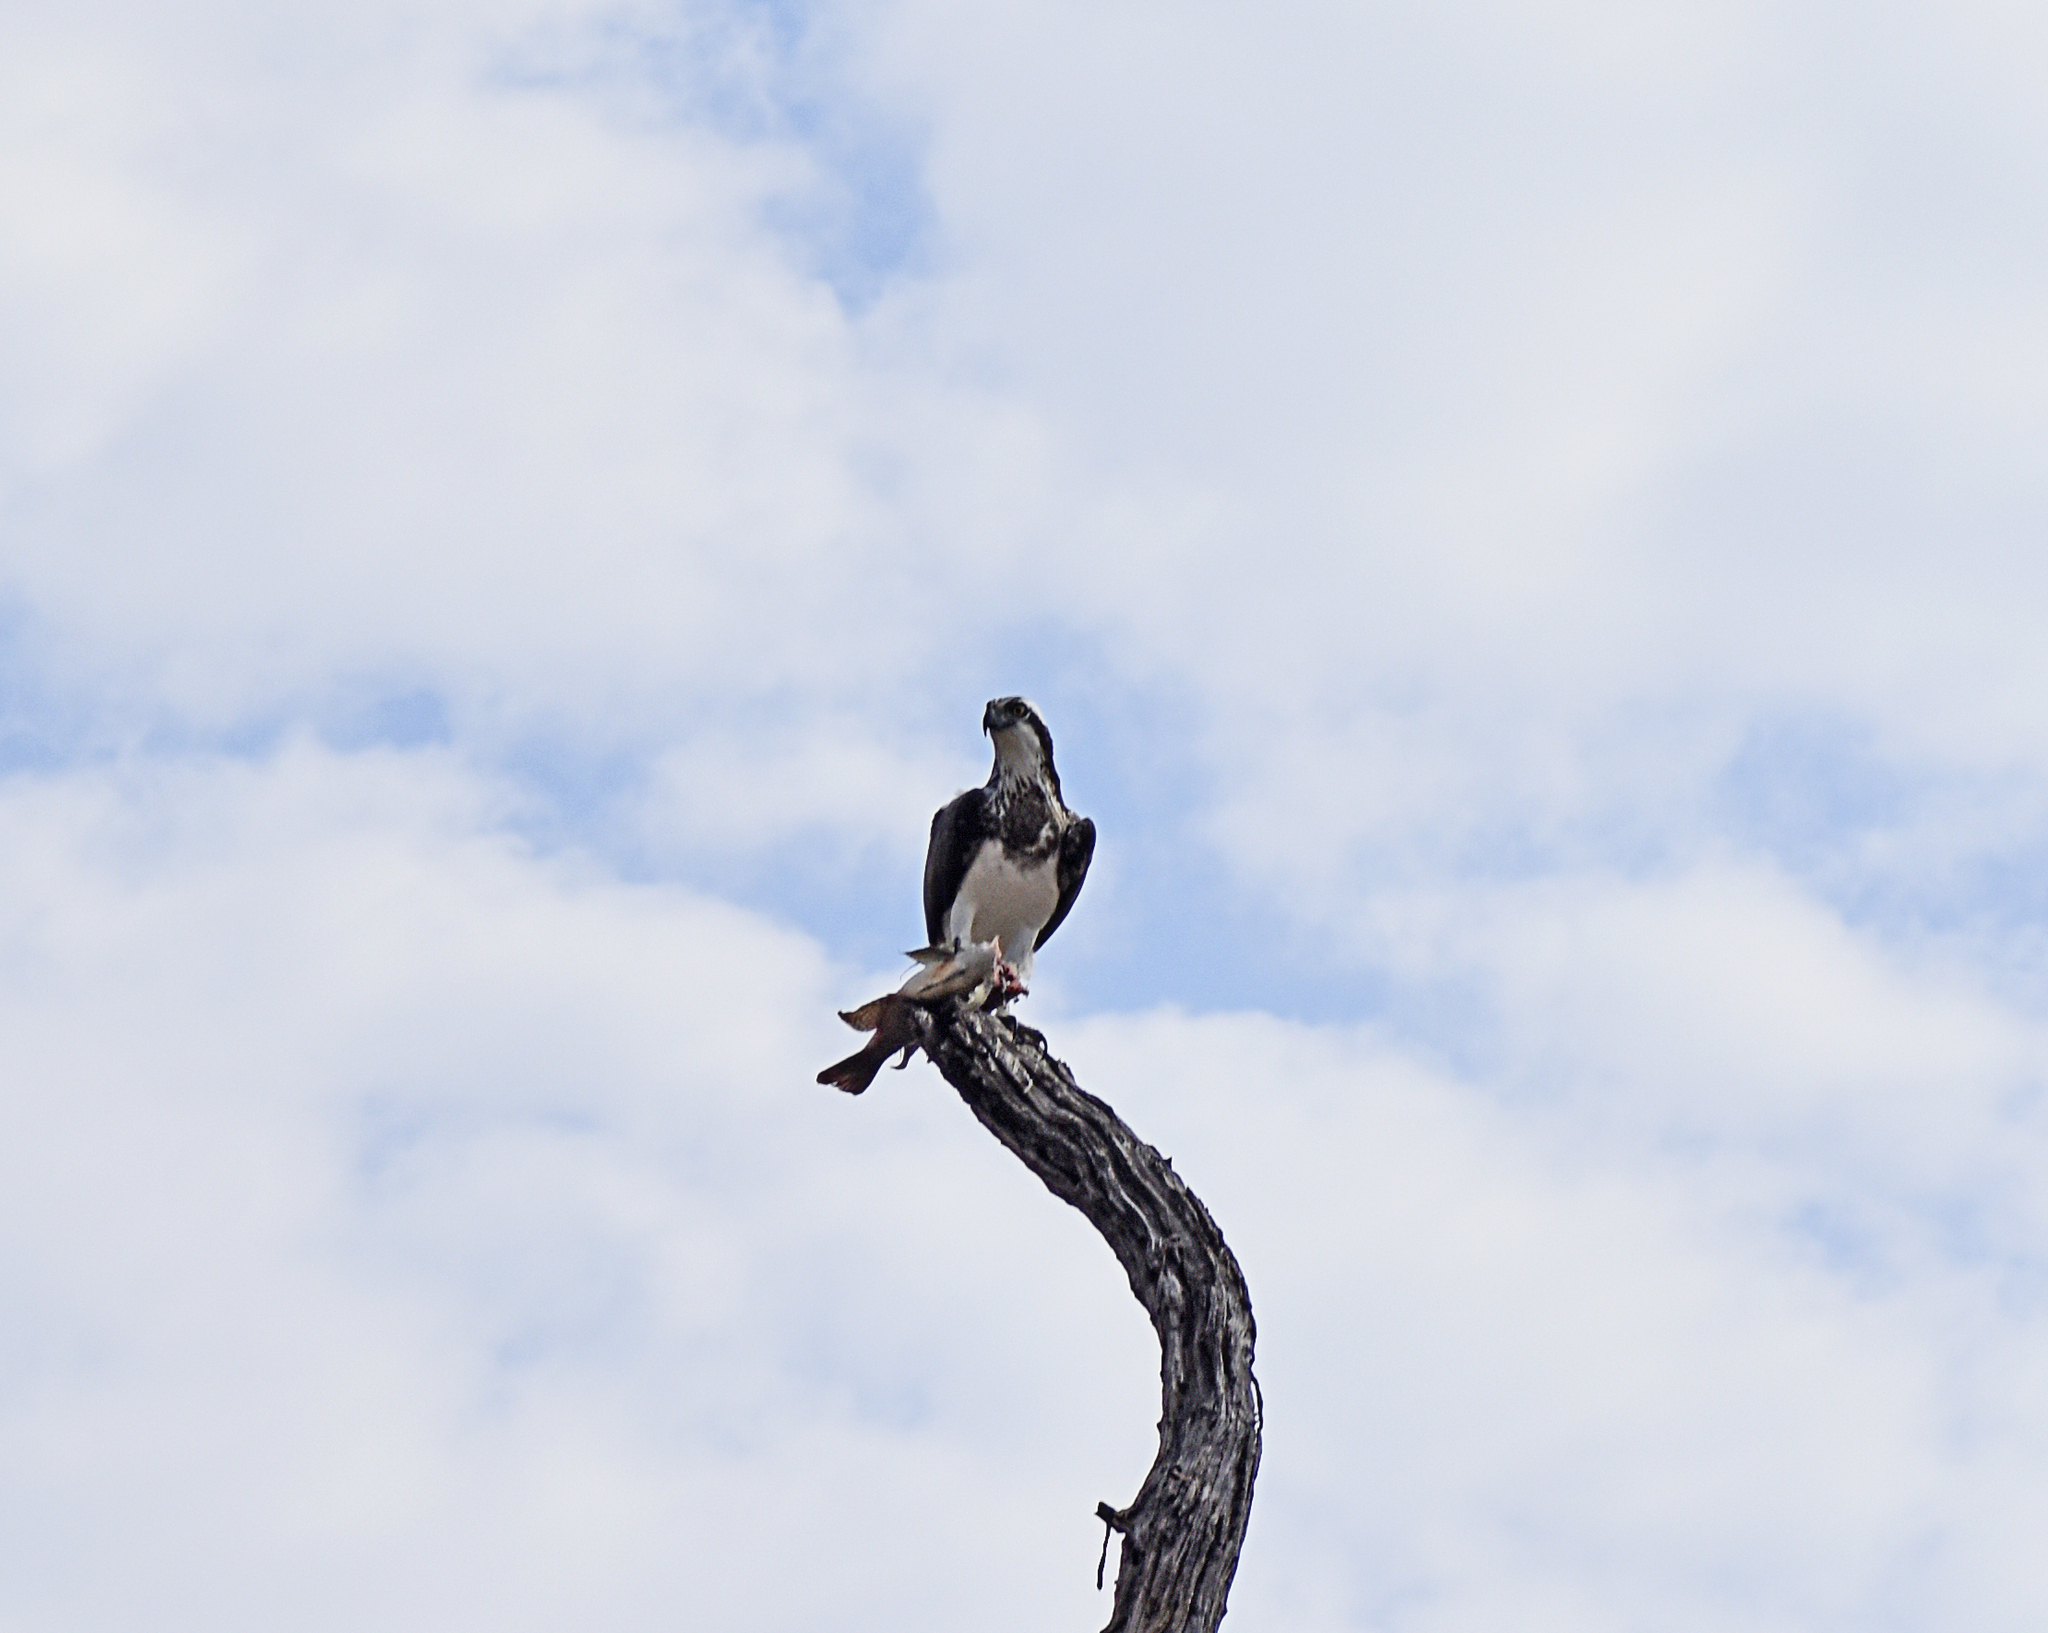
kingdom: Animalia
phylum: Chordata
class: Aves
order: Accipitriformes
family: Pandionidae
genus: Pandion
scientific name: Pandion haliaetus
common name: Osprey
